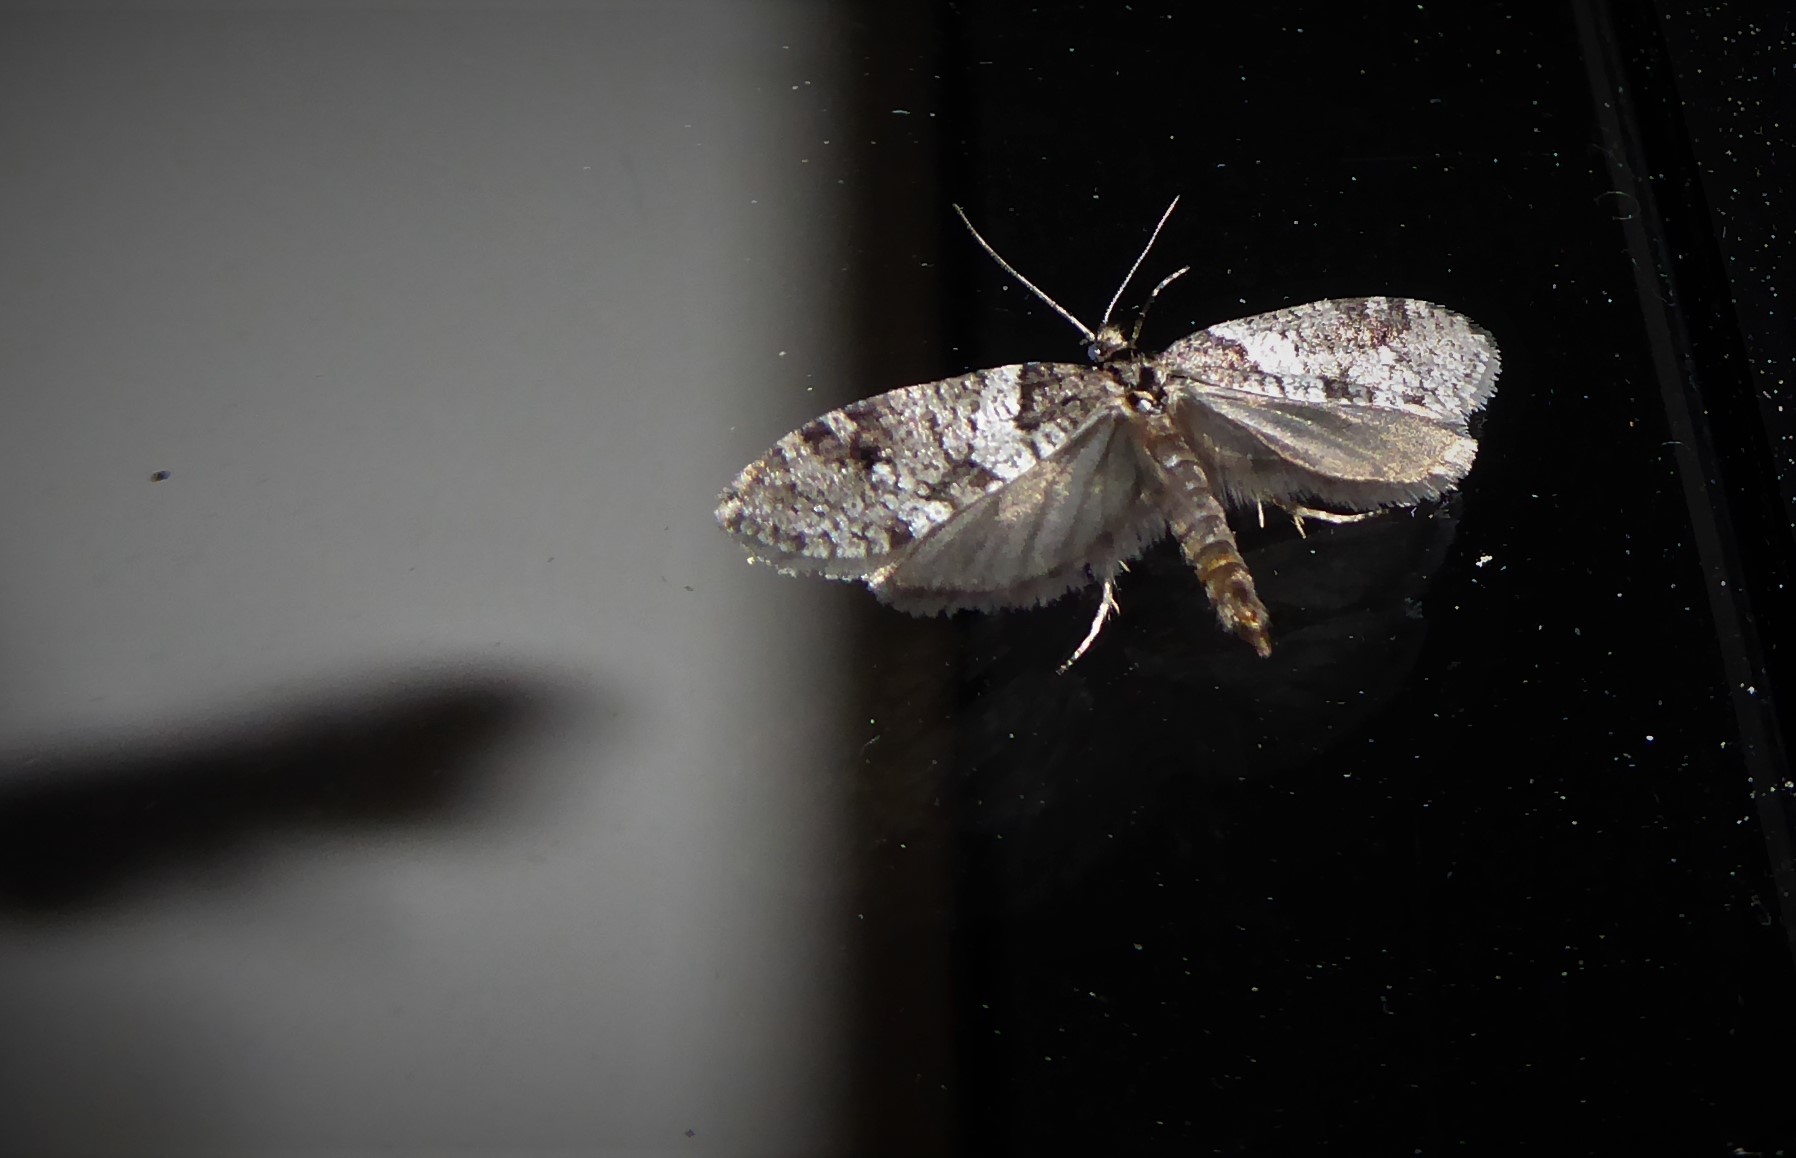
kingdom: Animalia
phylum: Arthropoda
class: Insecta
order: Lepidoptera
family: Psychidae
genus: Lepidoscia
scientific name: Lepidoscia heliochares
